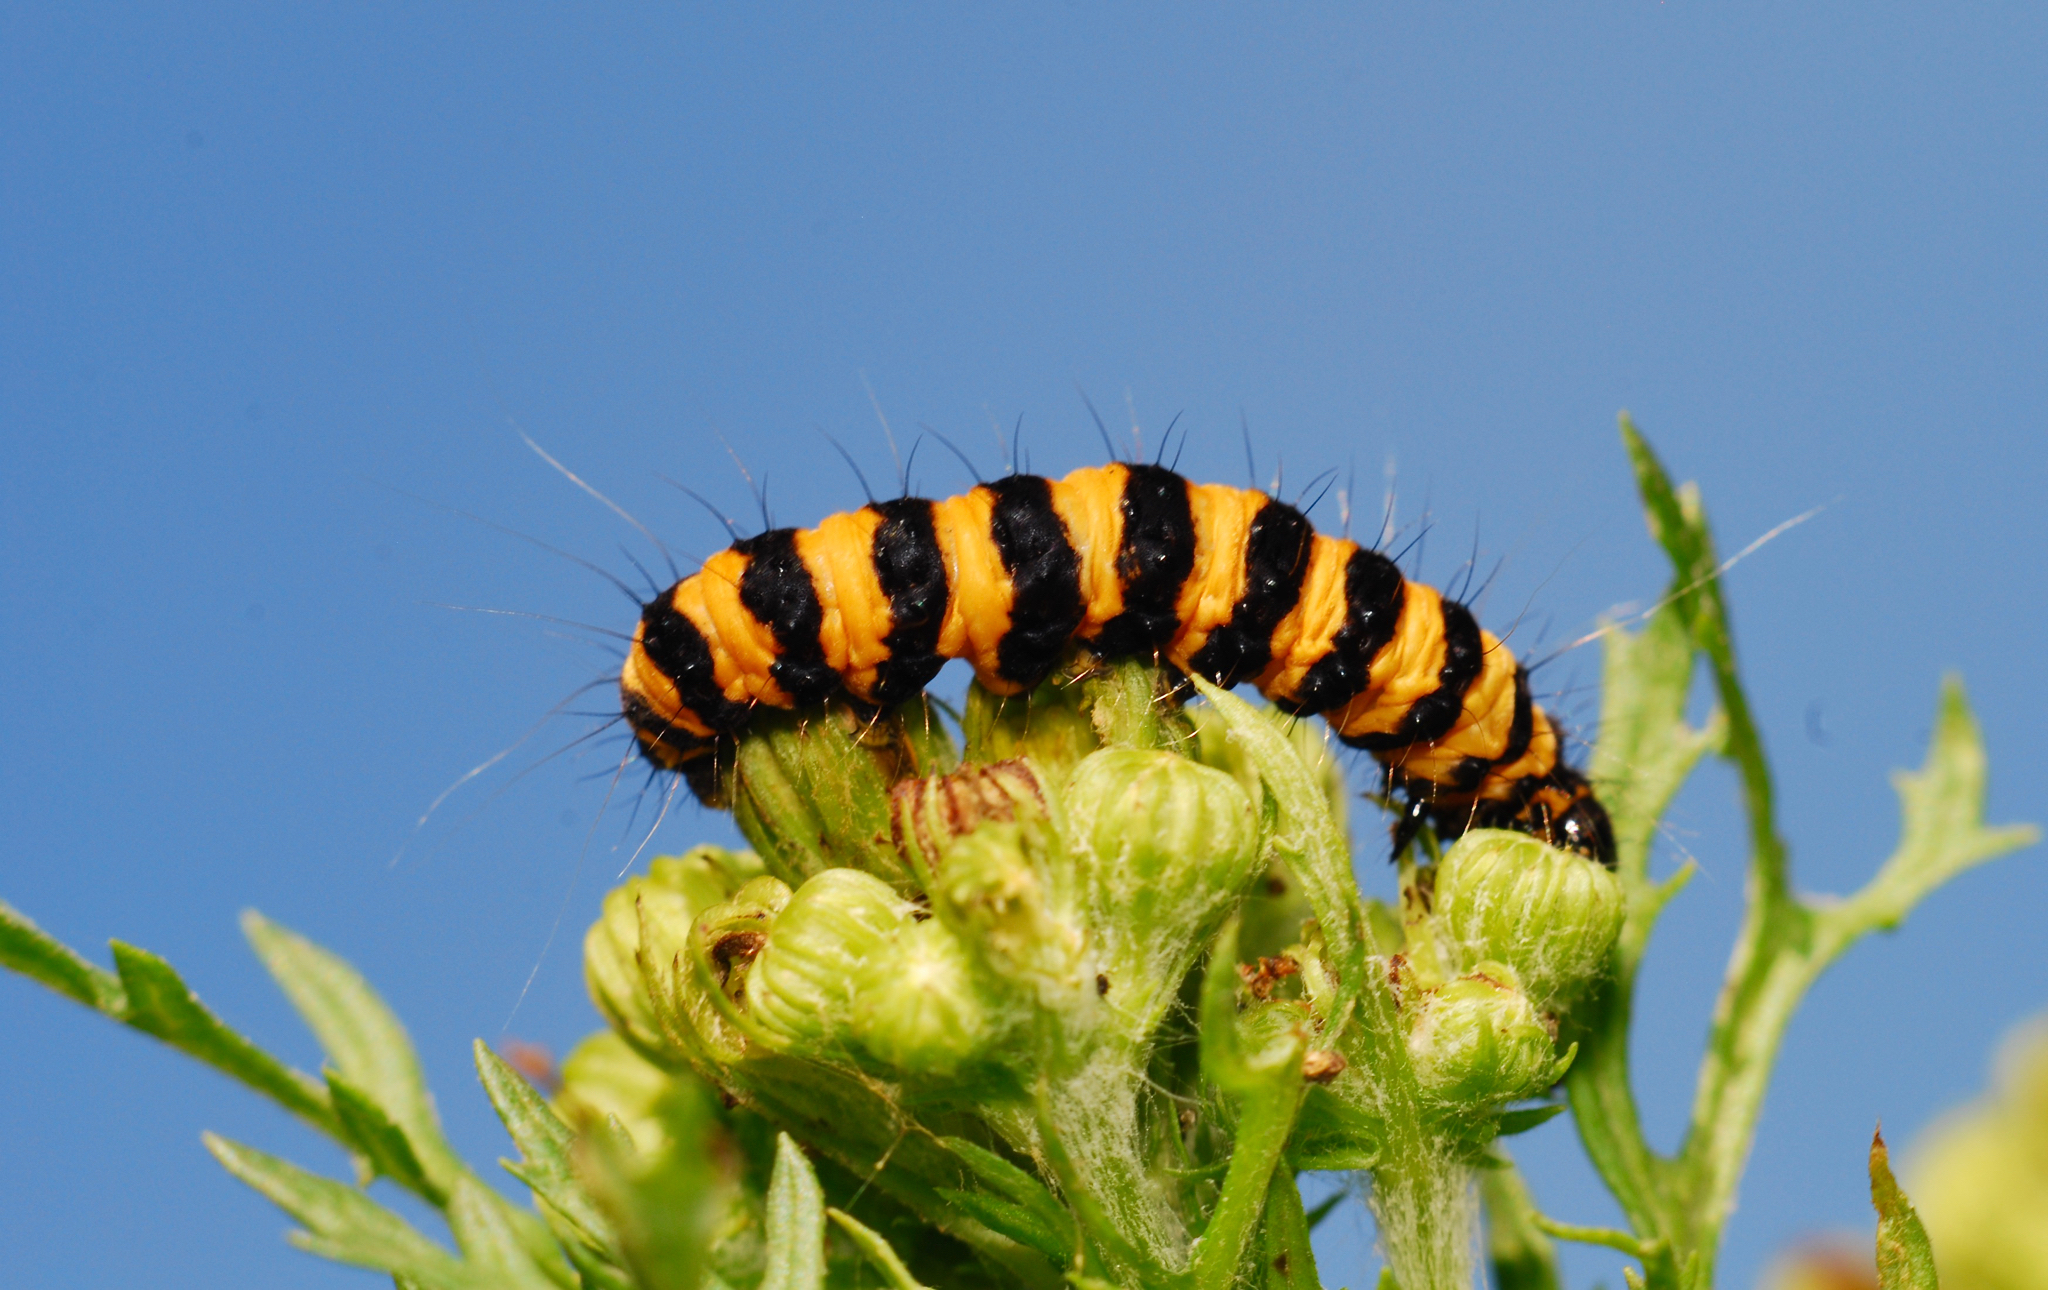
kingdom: Animalia
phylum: Arthropoda
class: Insecta
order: Lepidoptera
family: Erebidae
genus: Tyria
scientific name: Tyria jacobaeae
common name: Cinnabar
